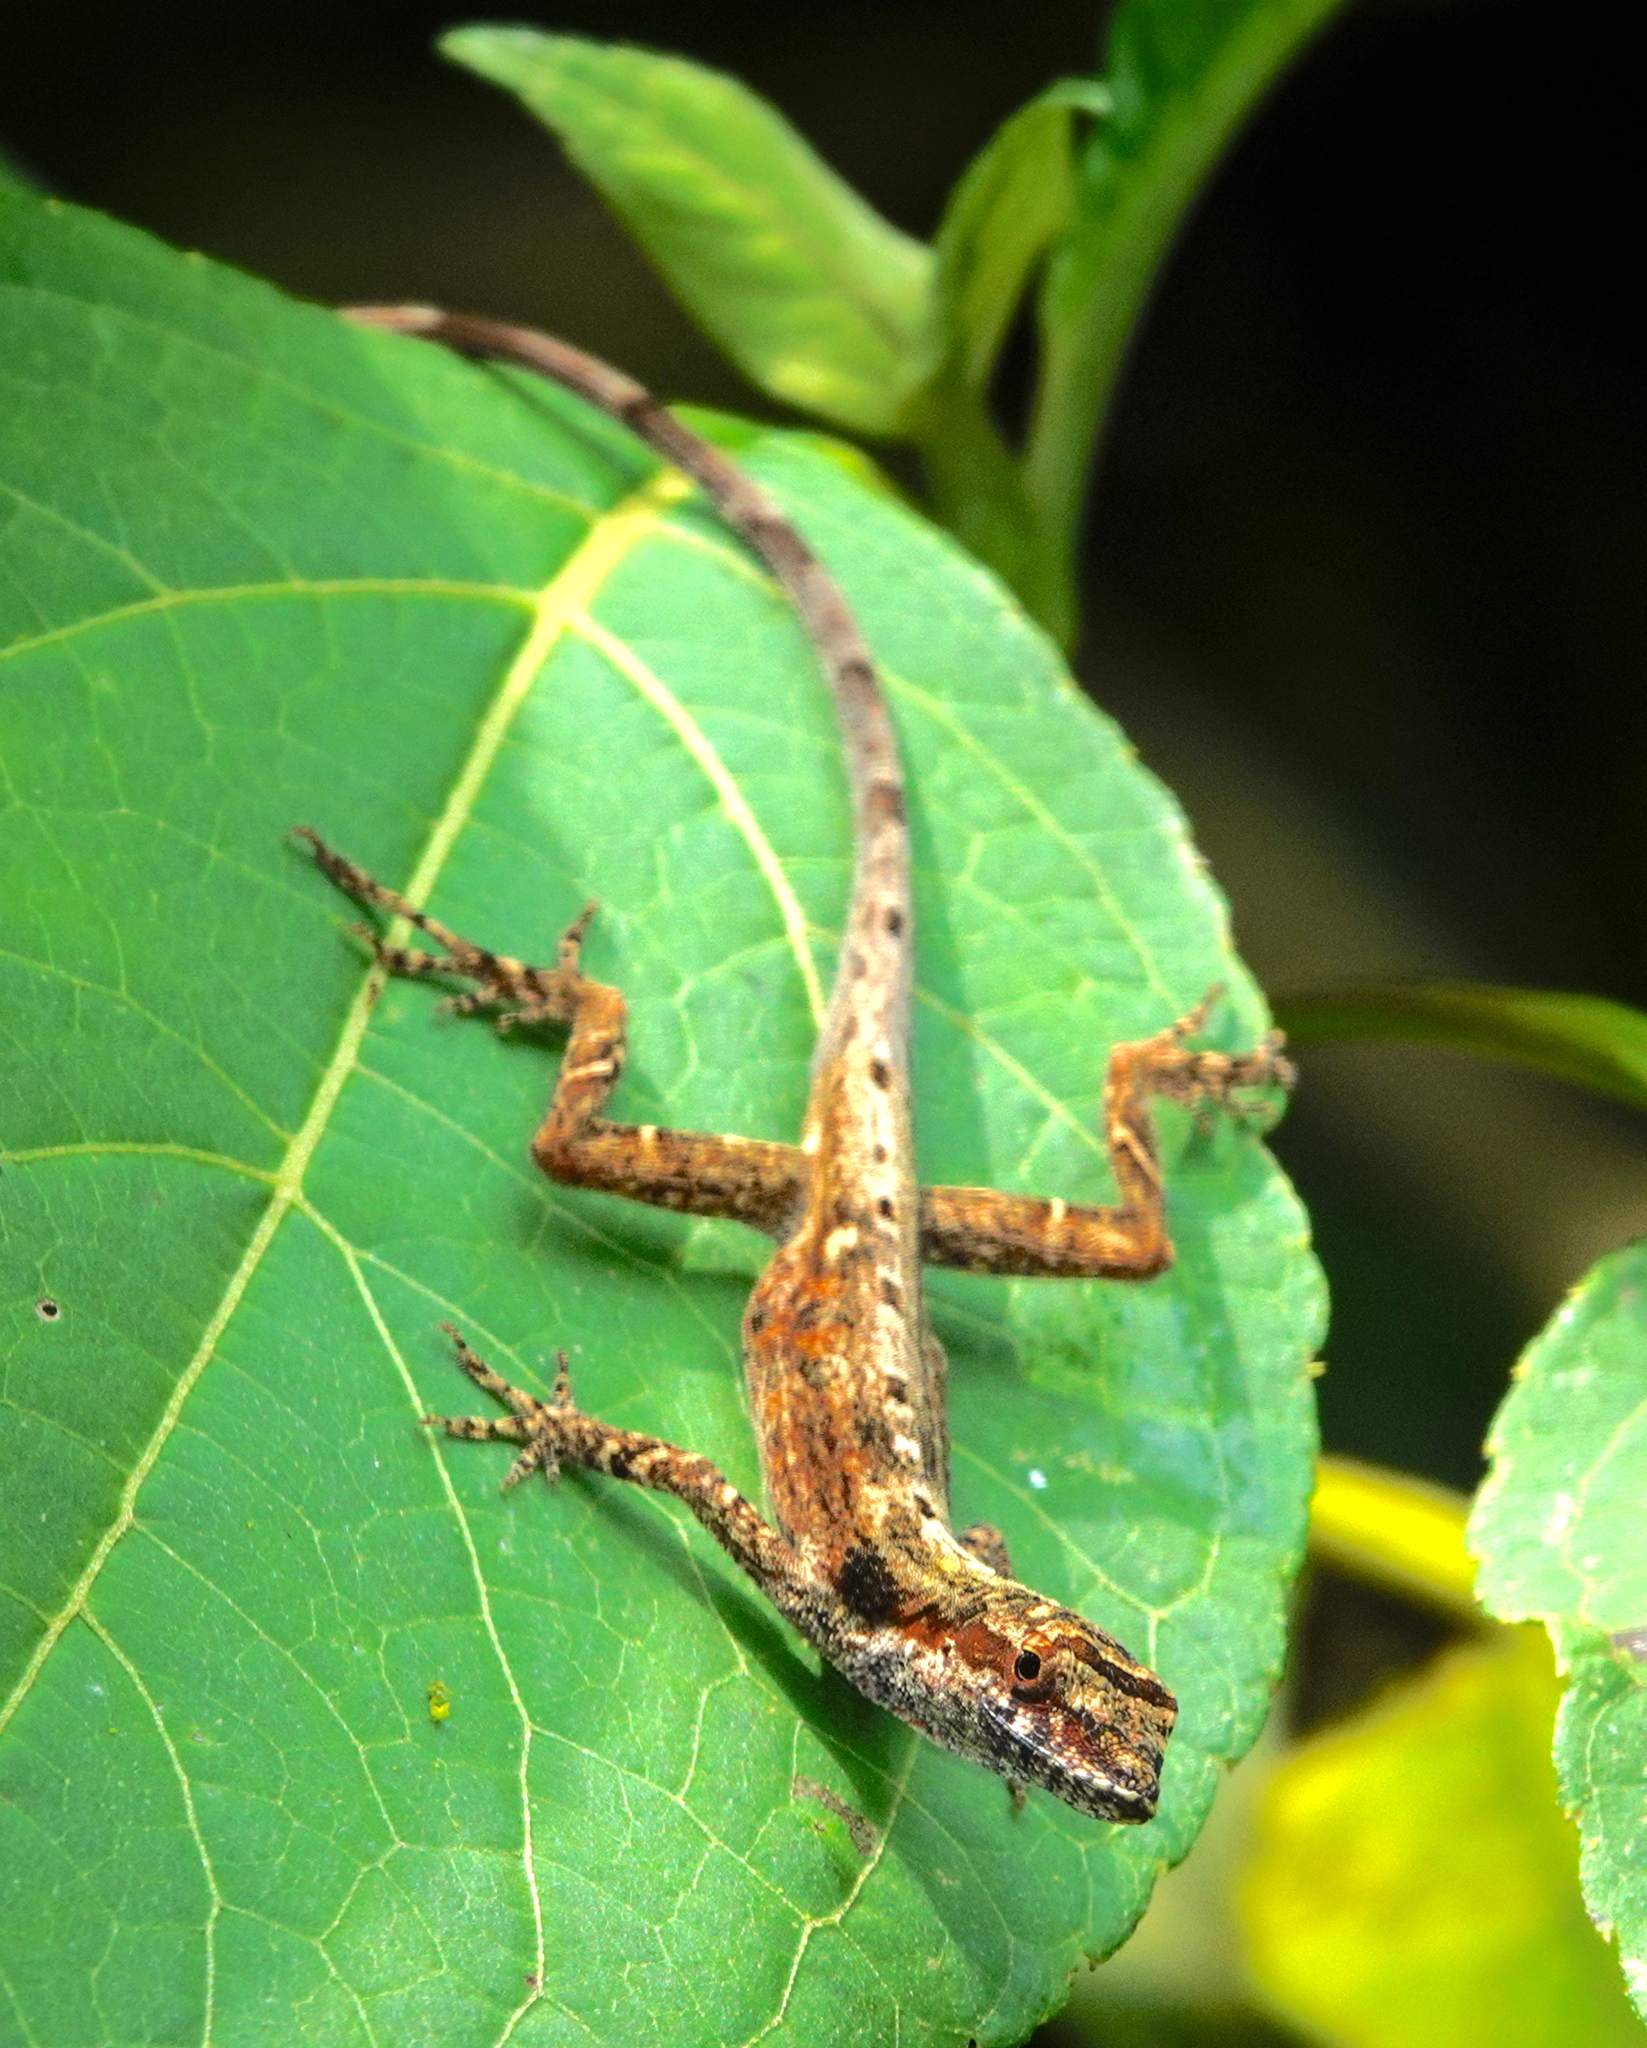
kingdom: Animalia
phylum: Chordata
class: Squamata
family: Dactyloidae
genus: Anolis
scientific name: Anolis antonii
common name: Anton's anole
